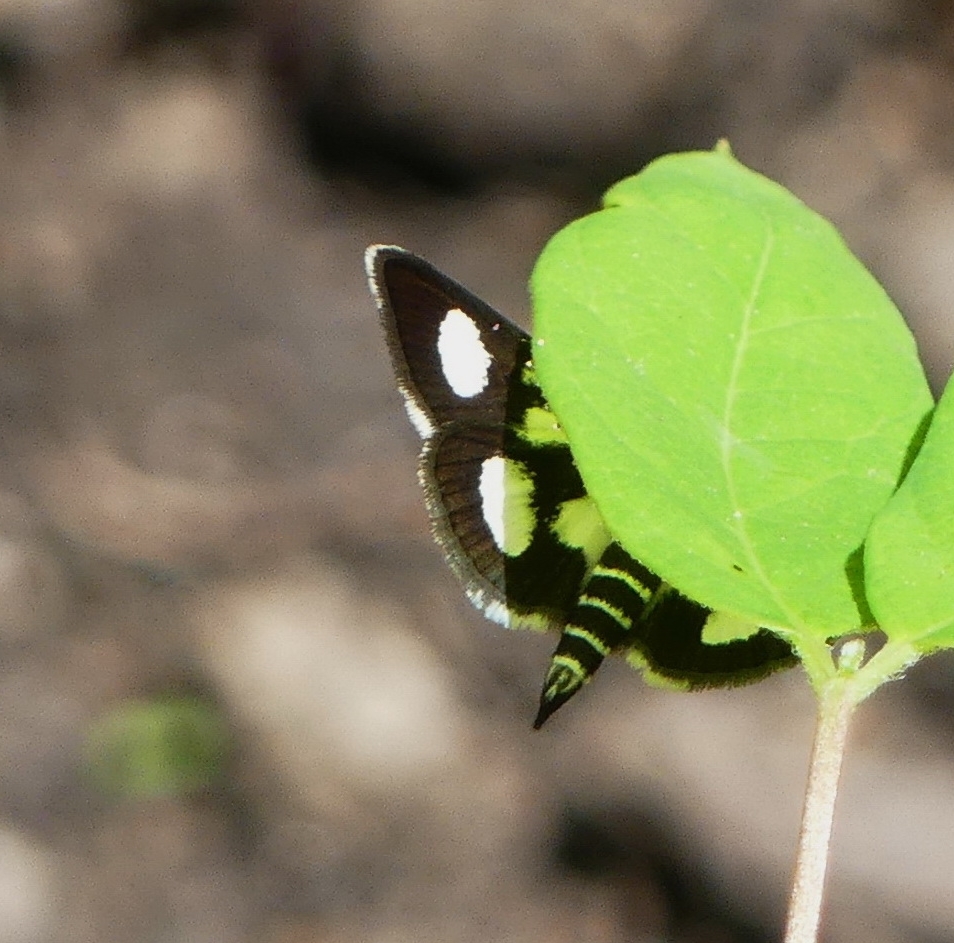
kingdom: Animalia
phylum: Arthropoda
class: Insecta
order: Lepidoptera
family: Crambidae
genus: Anania
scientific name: Anania funebris
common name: White-spotted sable moth
